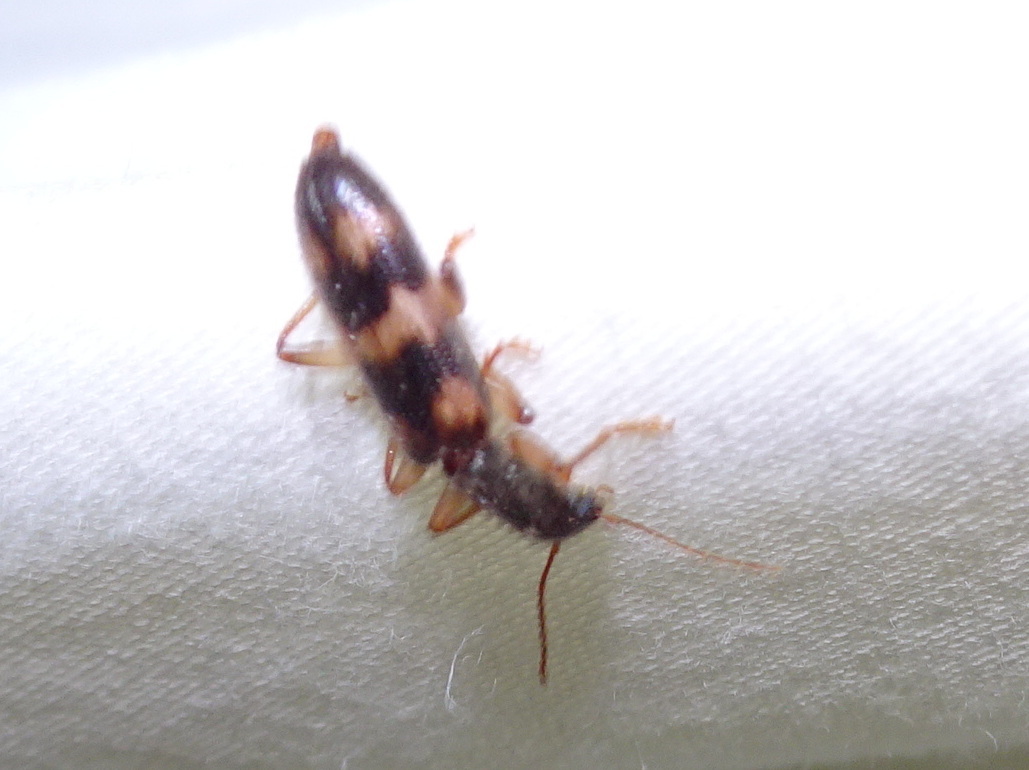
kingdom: Animalia
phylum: Arthropoda
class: Insecta
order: Coleoptera
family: Cleridae
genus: Cymatodera
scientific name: Cymatodera undulata
